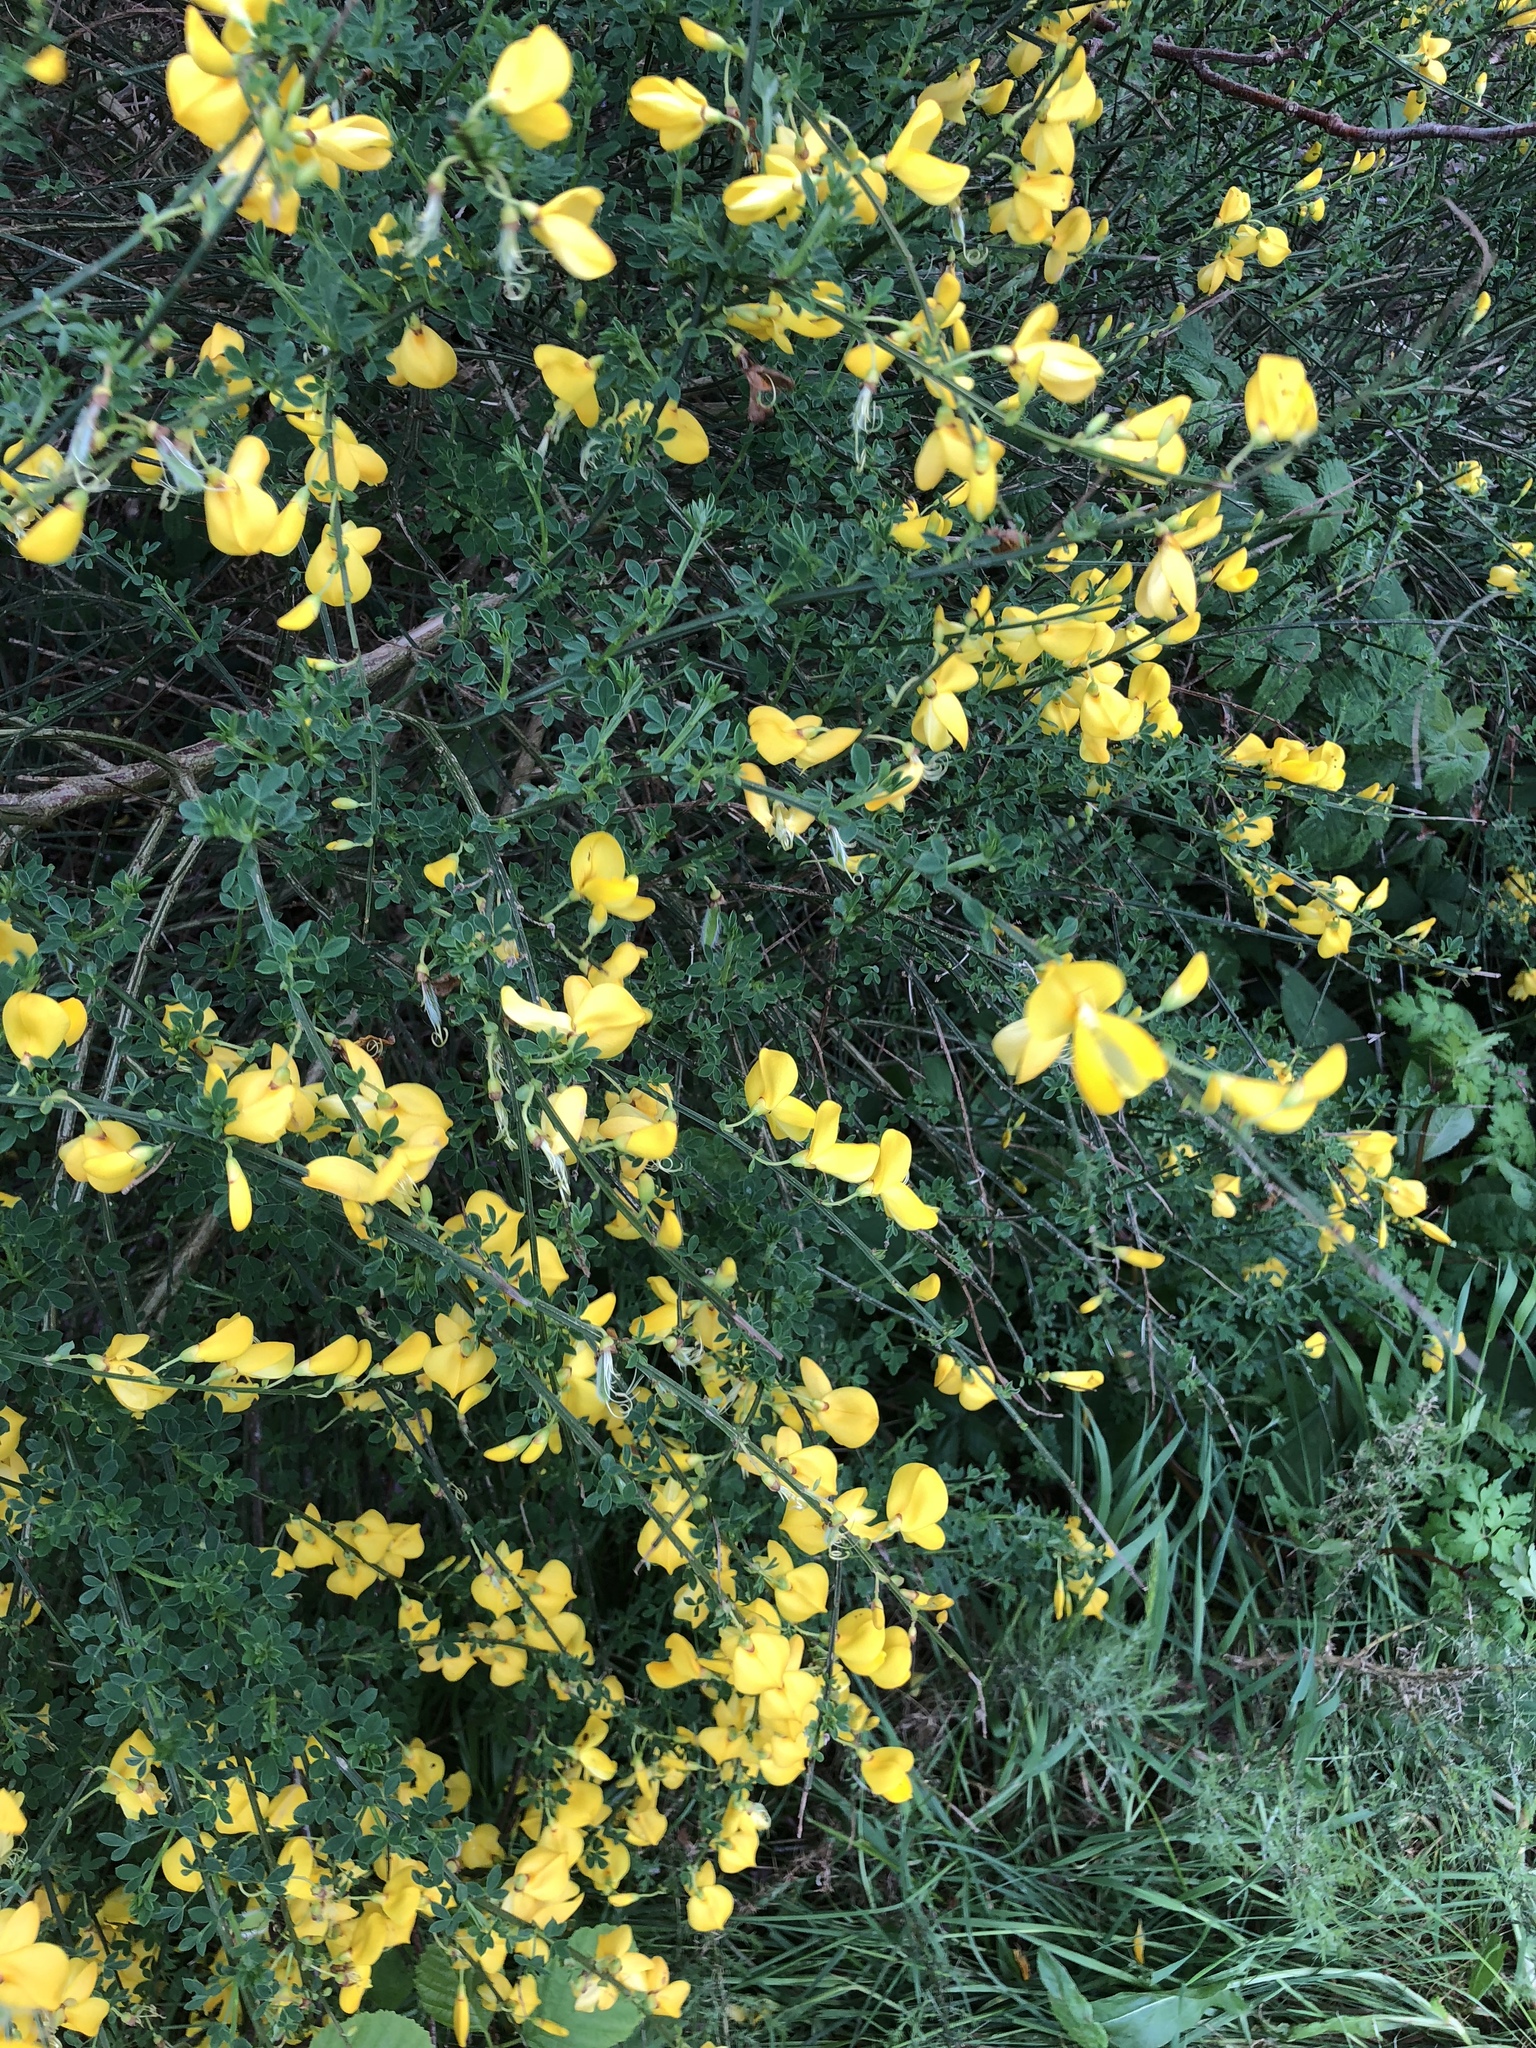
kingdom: Plantae
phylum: Tracheophyta
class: Magnoliopsida
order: Fabales
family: Fabaceae
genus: Cytisus
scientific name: Cytisus scoparius
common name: Scotch broom
